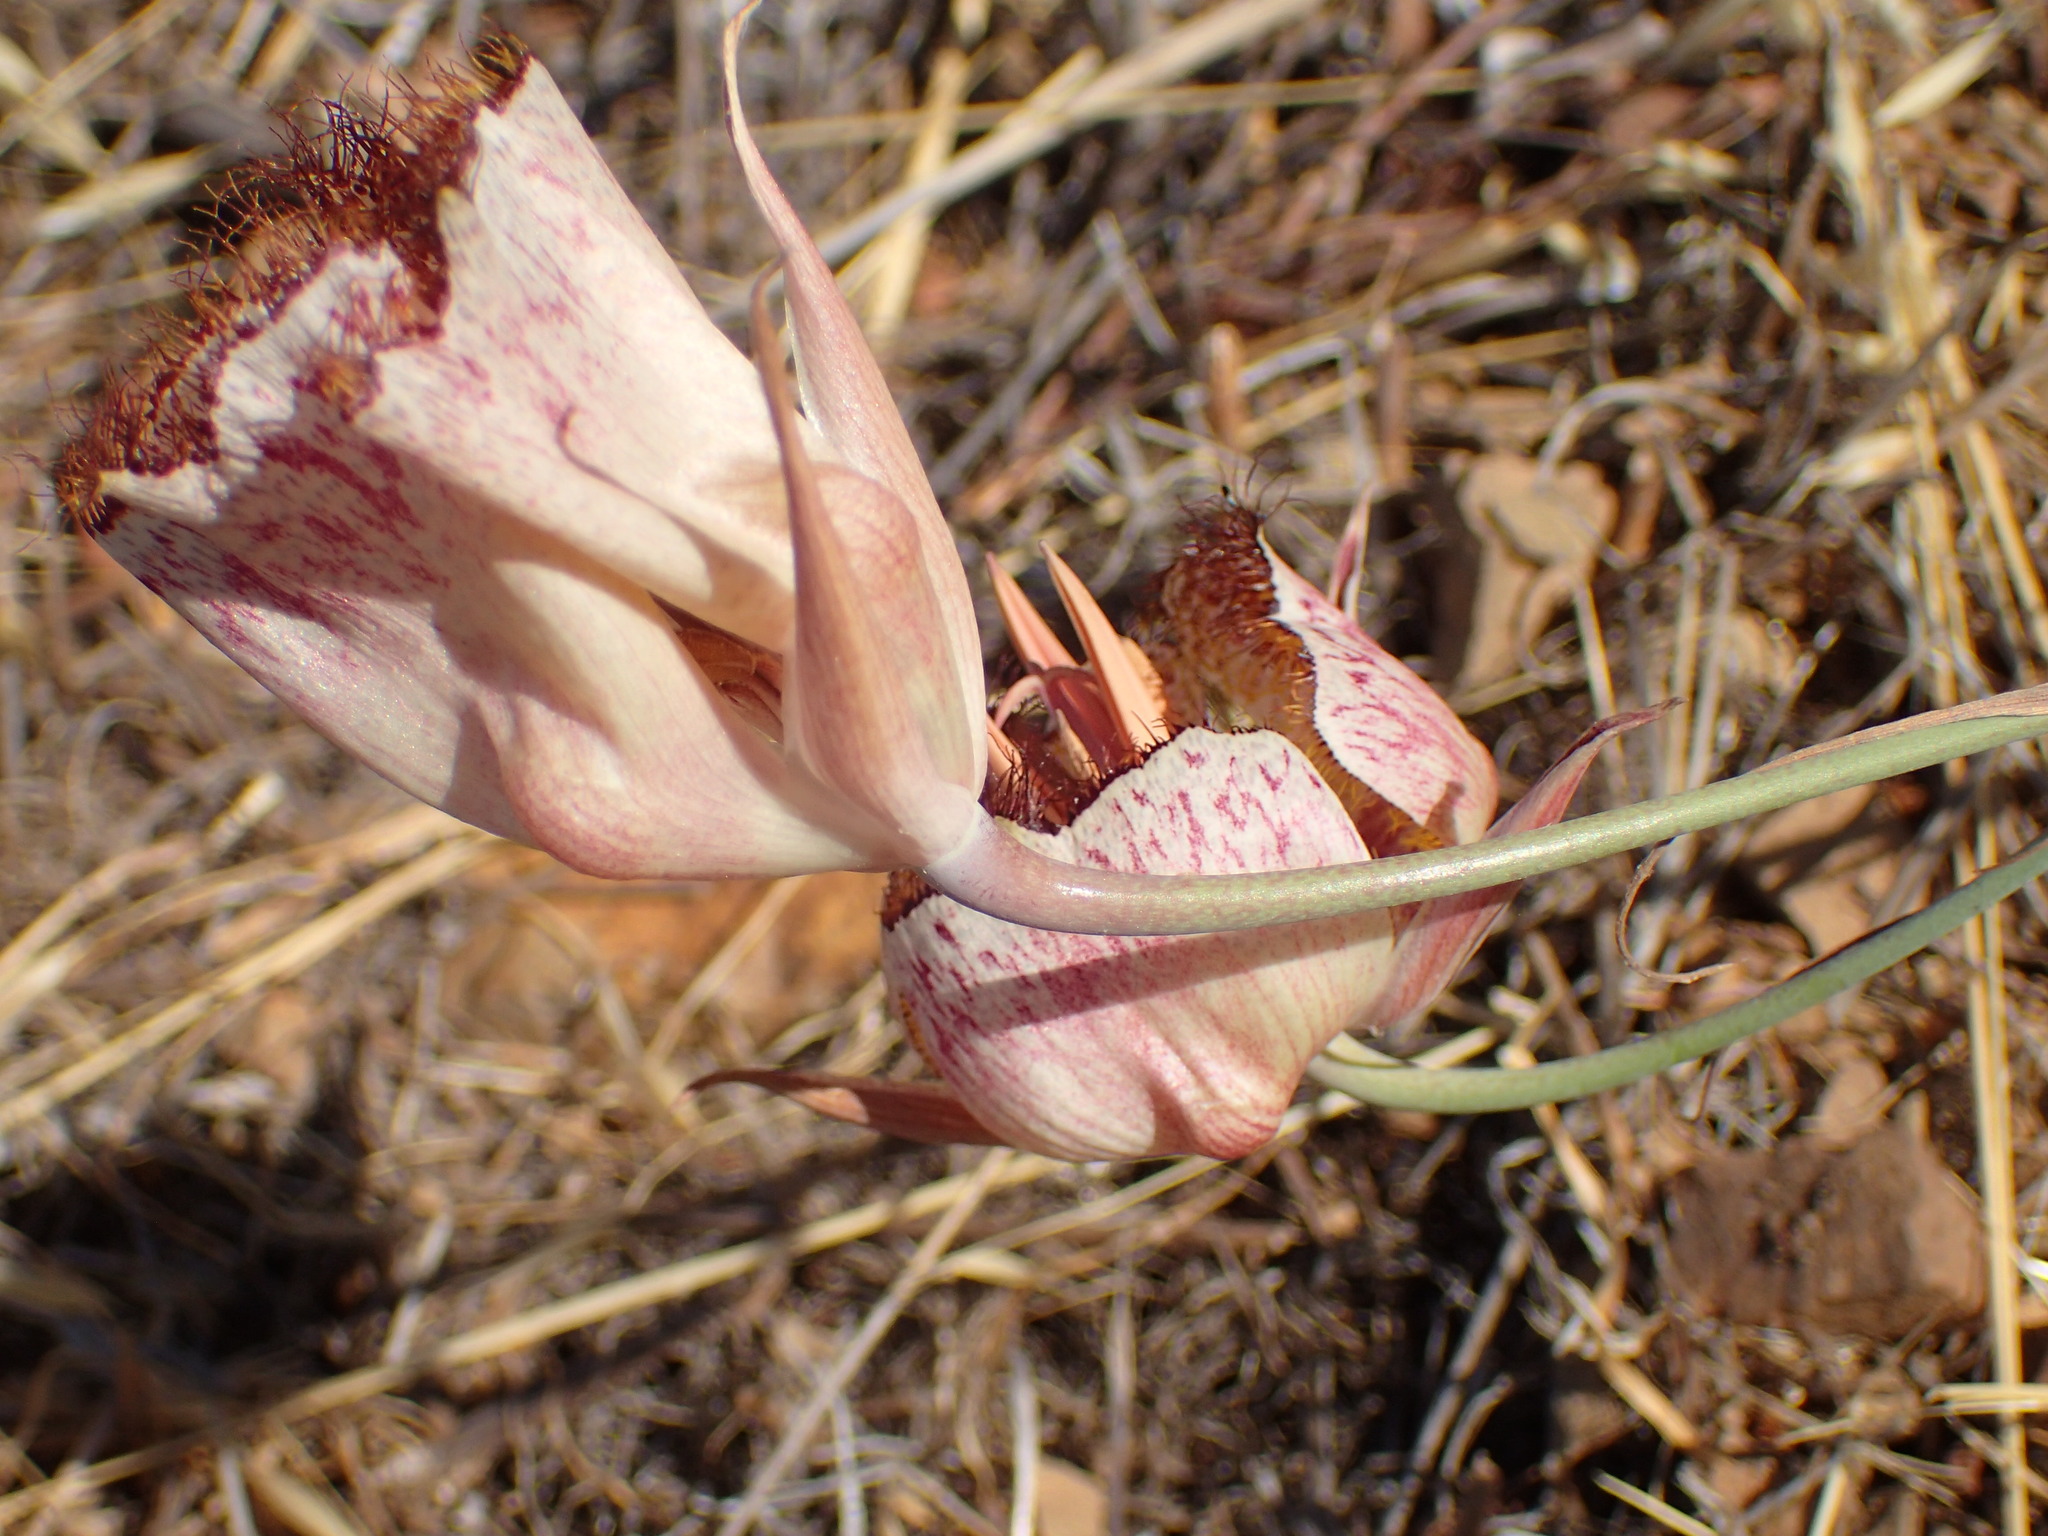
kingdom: Plantae
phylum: Tracheophyta
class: Liliopsida
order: Liliales
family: Liliaceae
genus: Calochortus
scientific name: Calochortus fimbriatus
